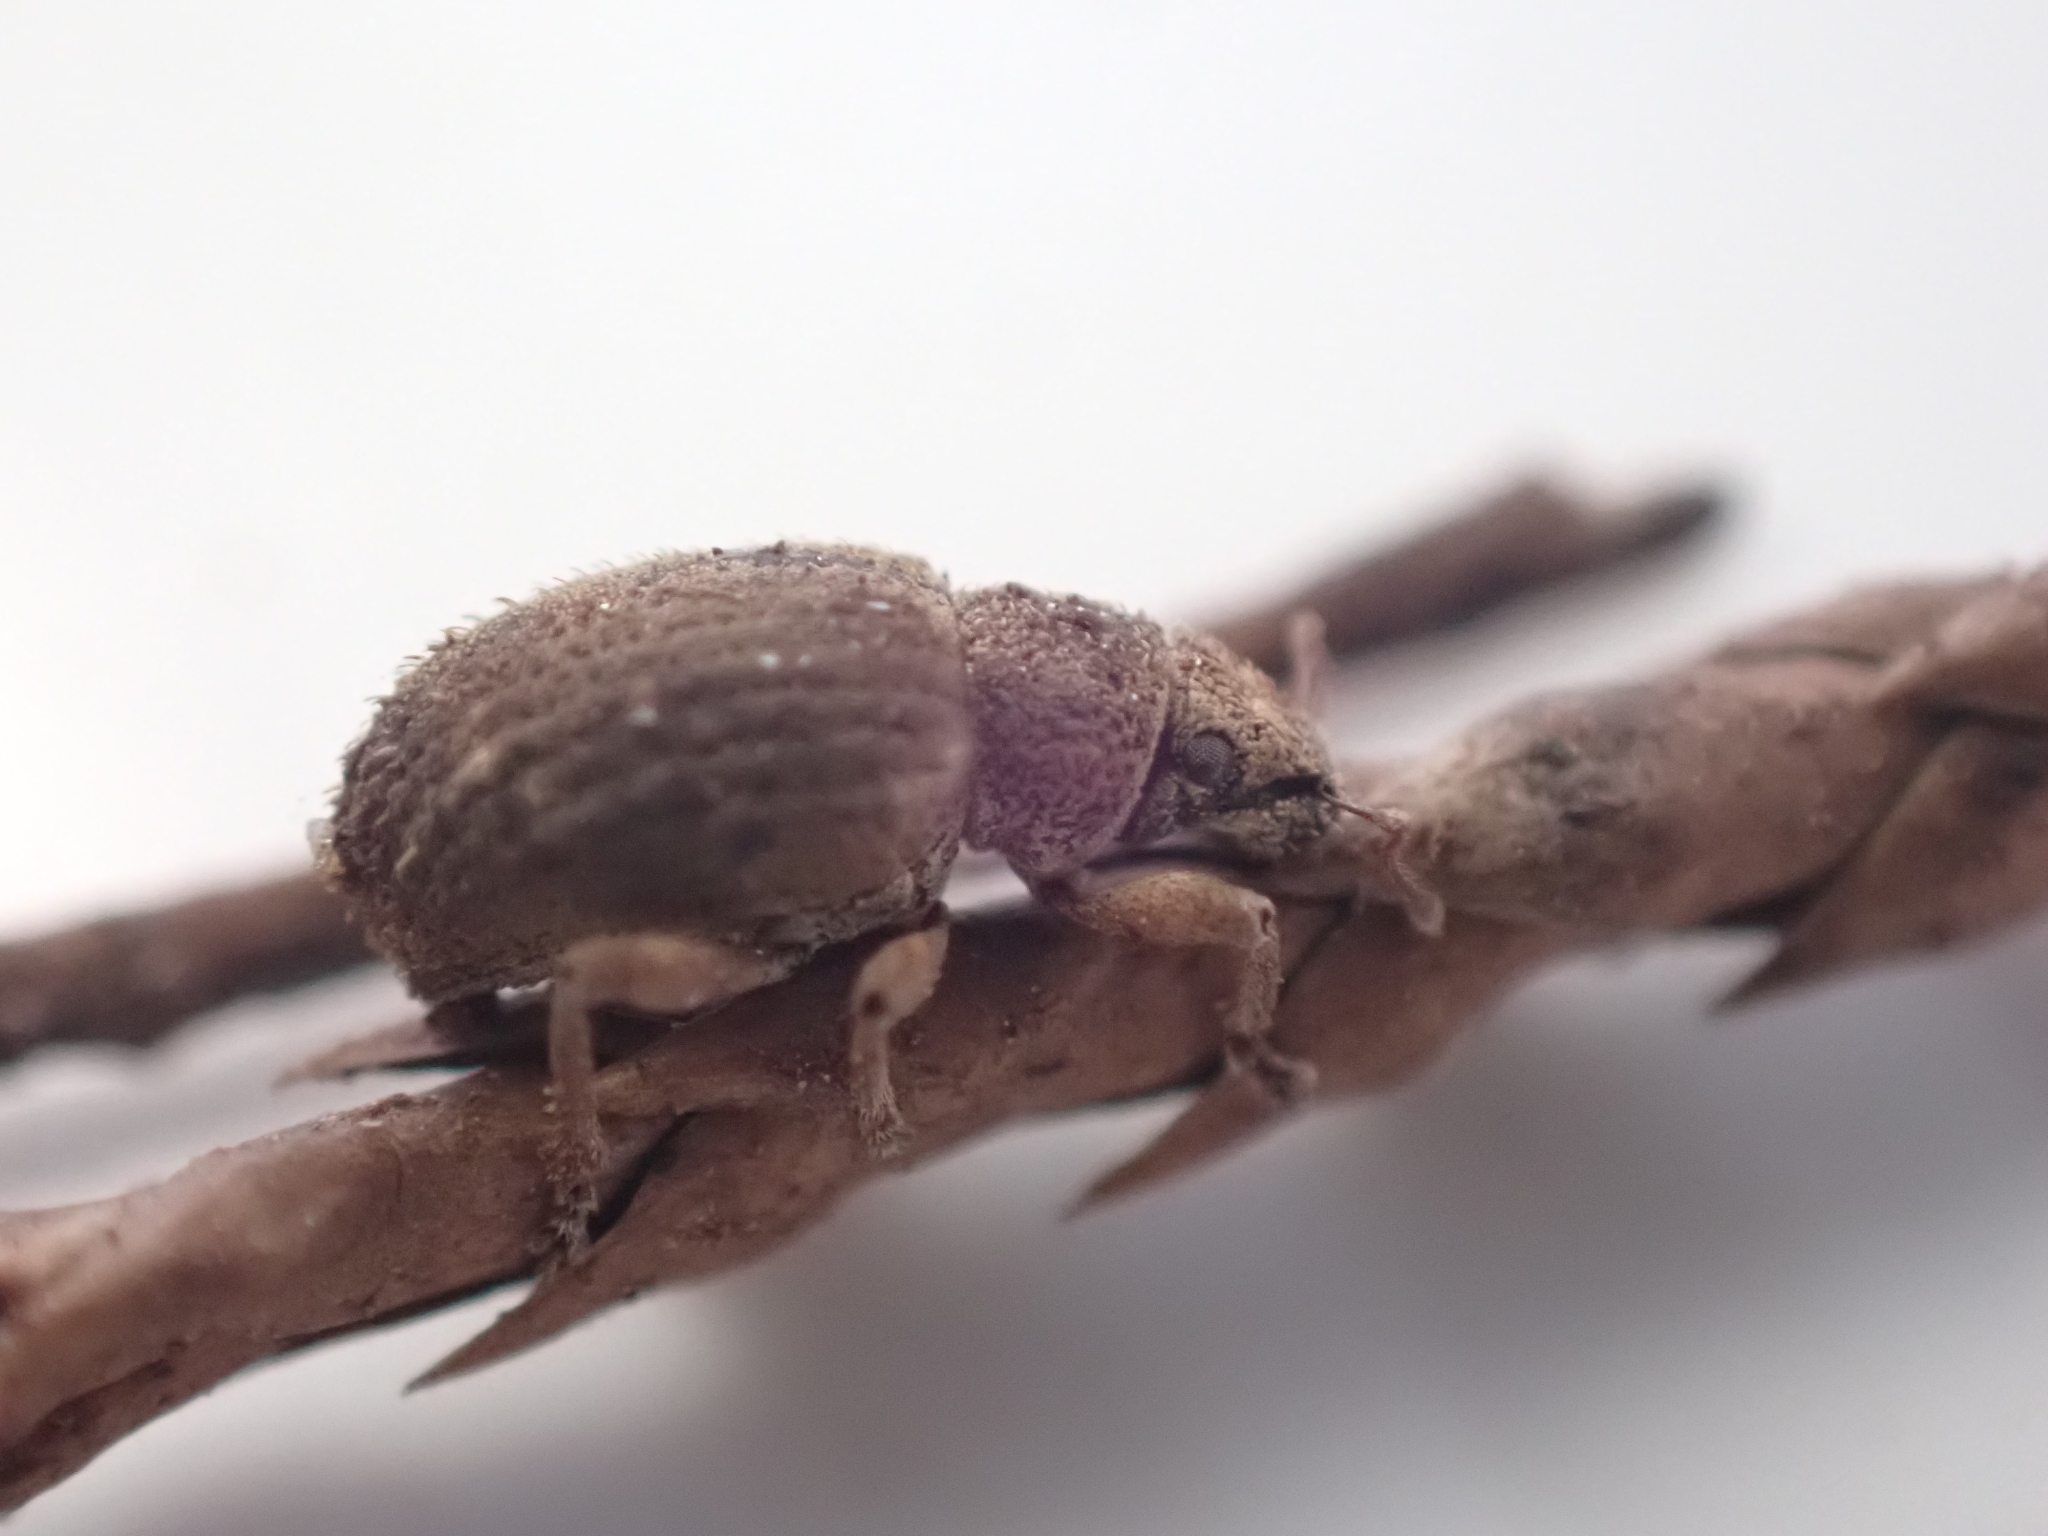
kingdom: Animalia
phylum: Arthropoda
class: Insecta
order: Coleoptera
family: Curculionidae
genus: Strophosoma
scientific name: Strophosoma melanogrammum
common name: Weevil
